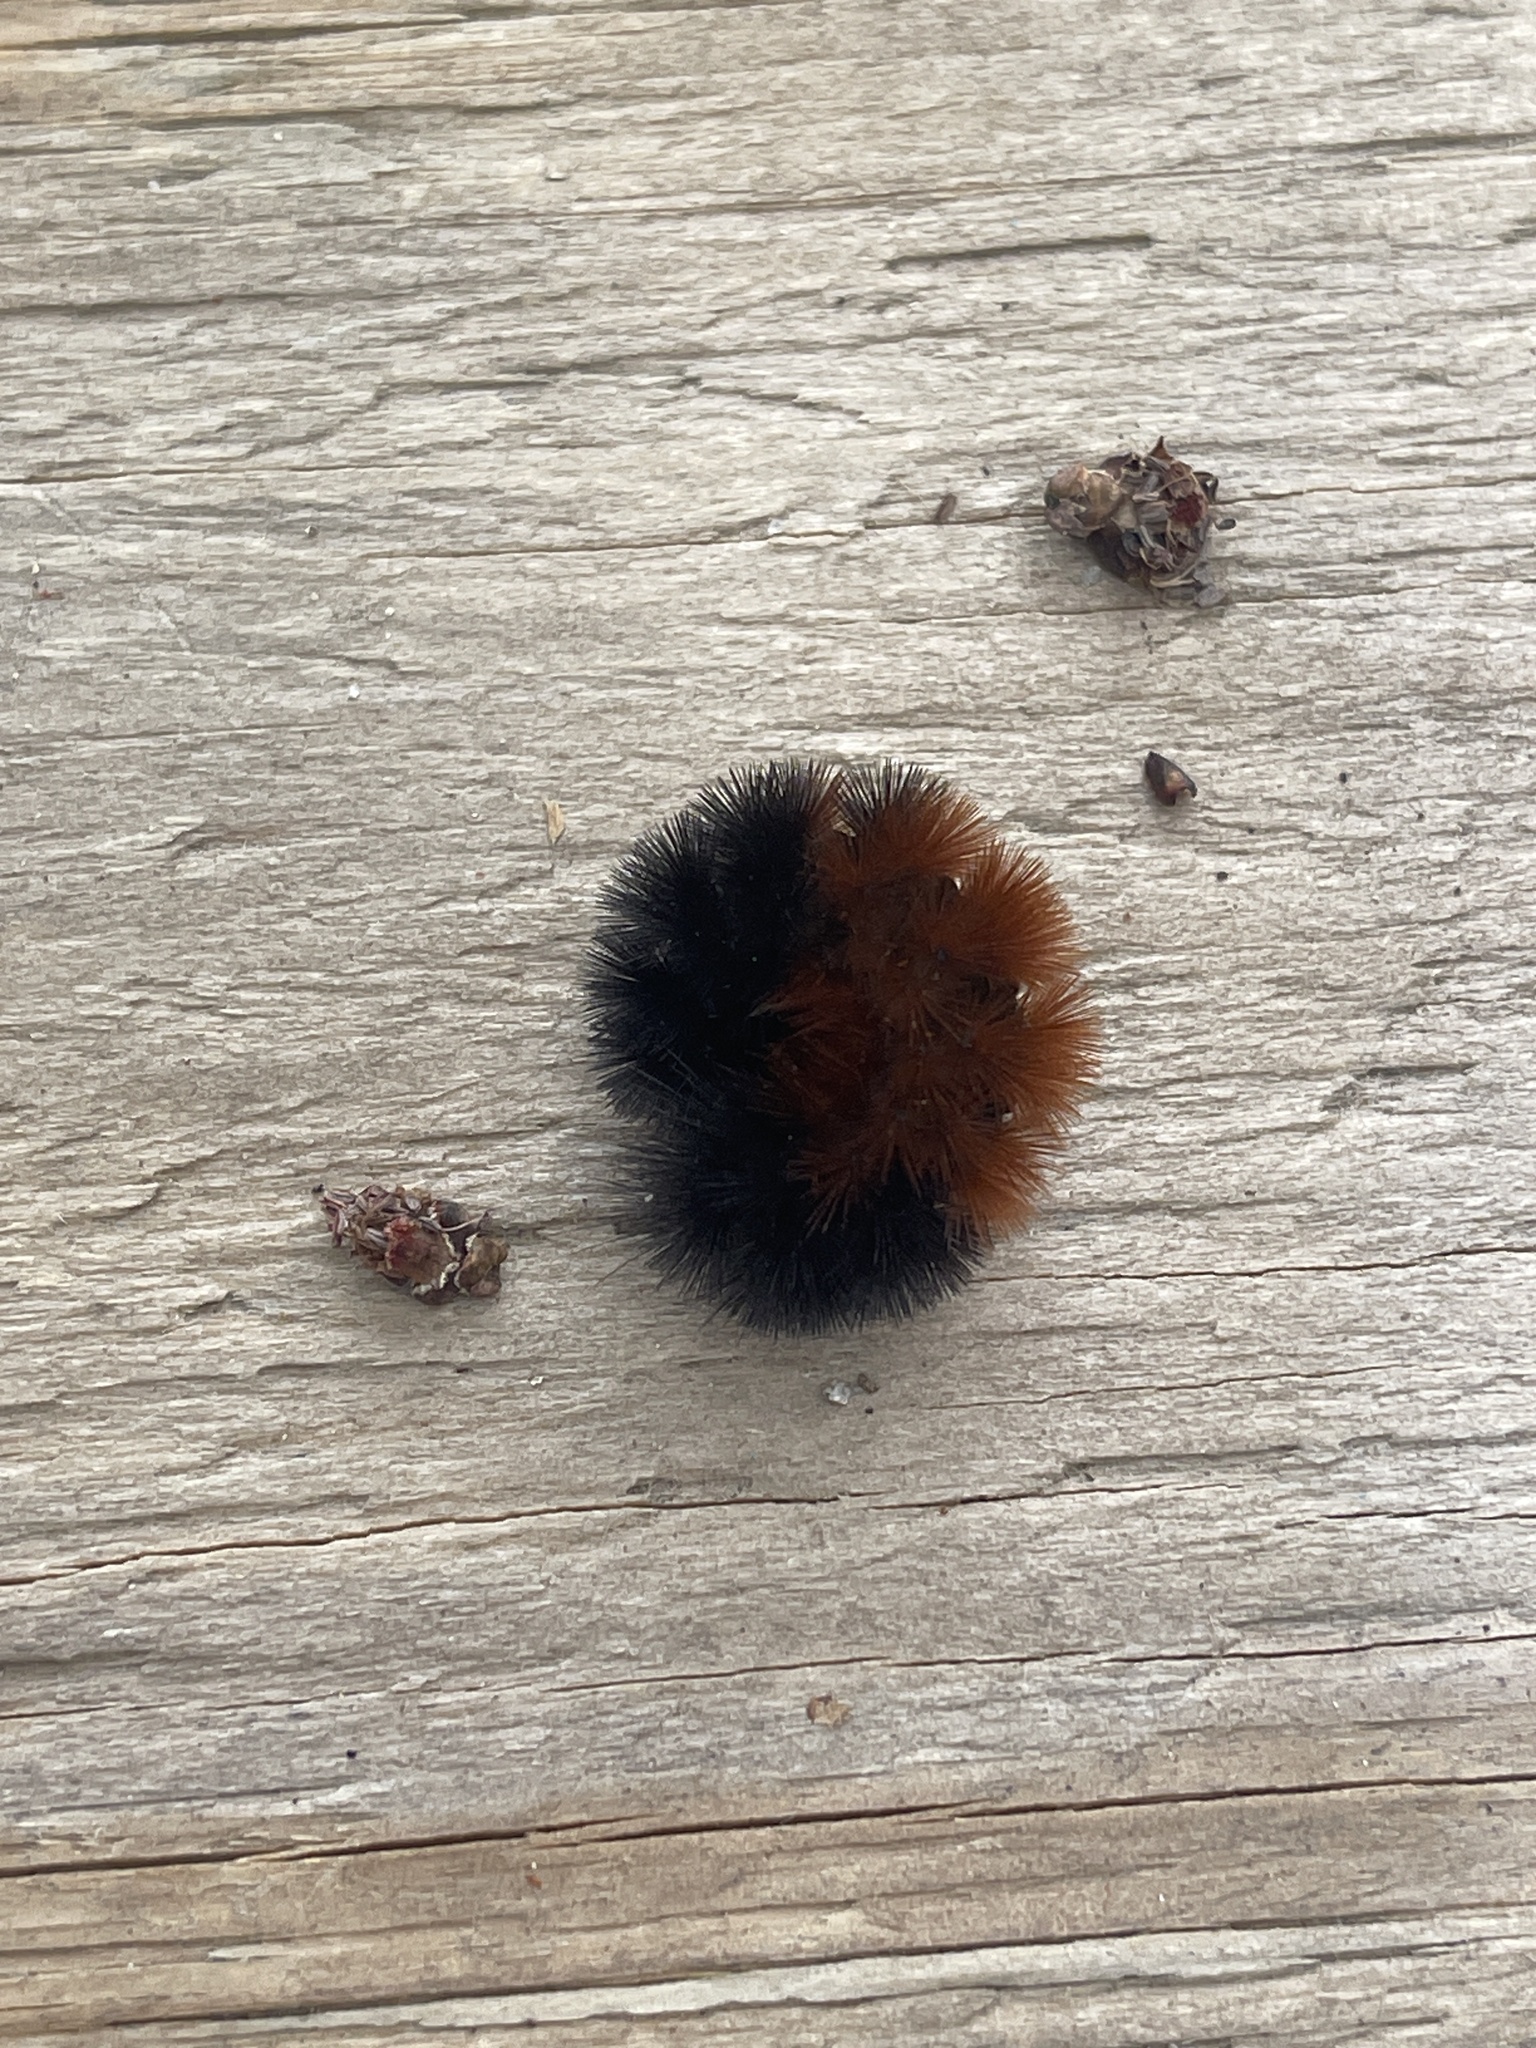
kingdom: Animalia
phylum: Arthropoda
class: Insecta
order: Lepidoptera
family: Erebidae
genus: Pyrrharctia
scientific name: Pyrrharctia isabella
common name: Isabella tiger moth
